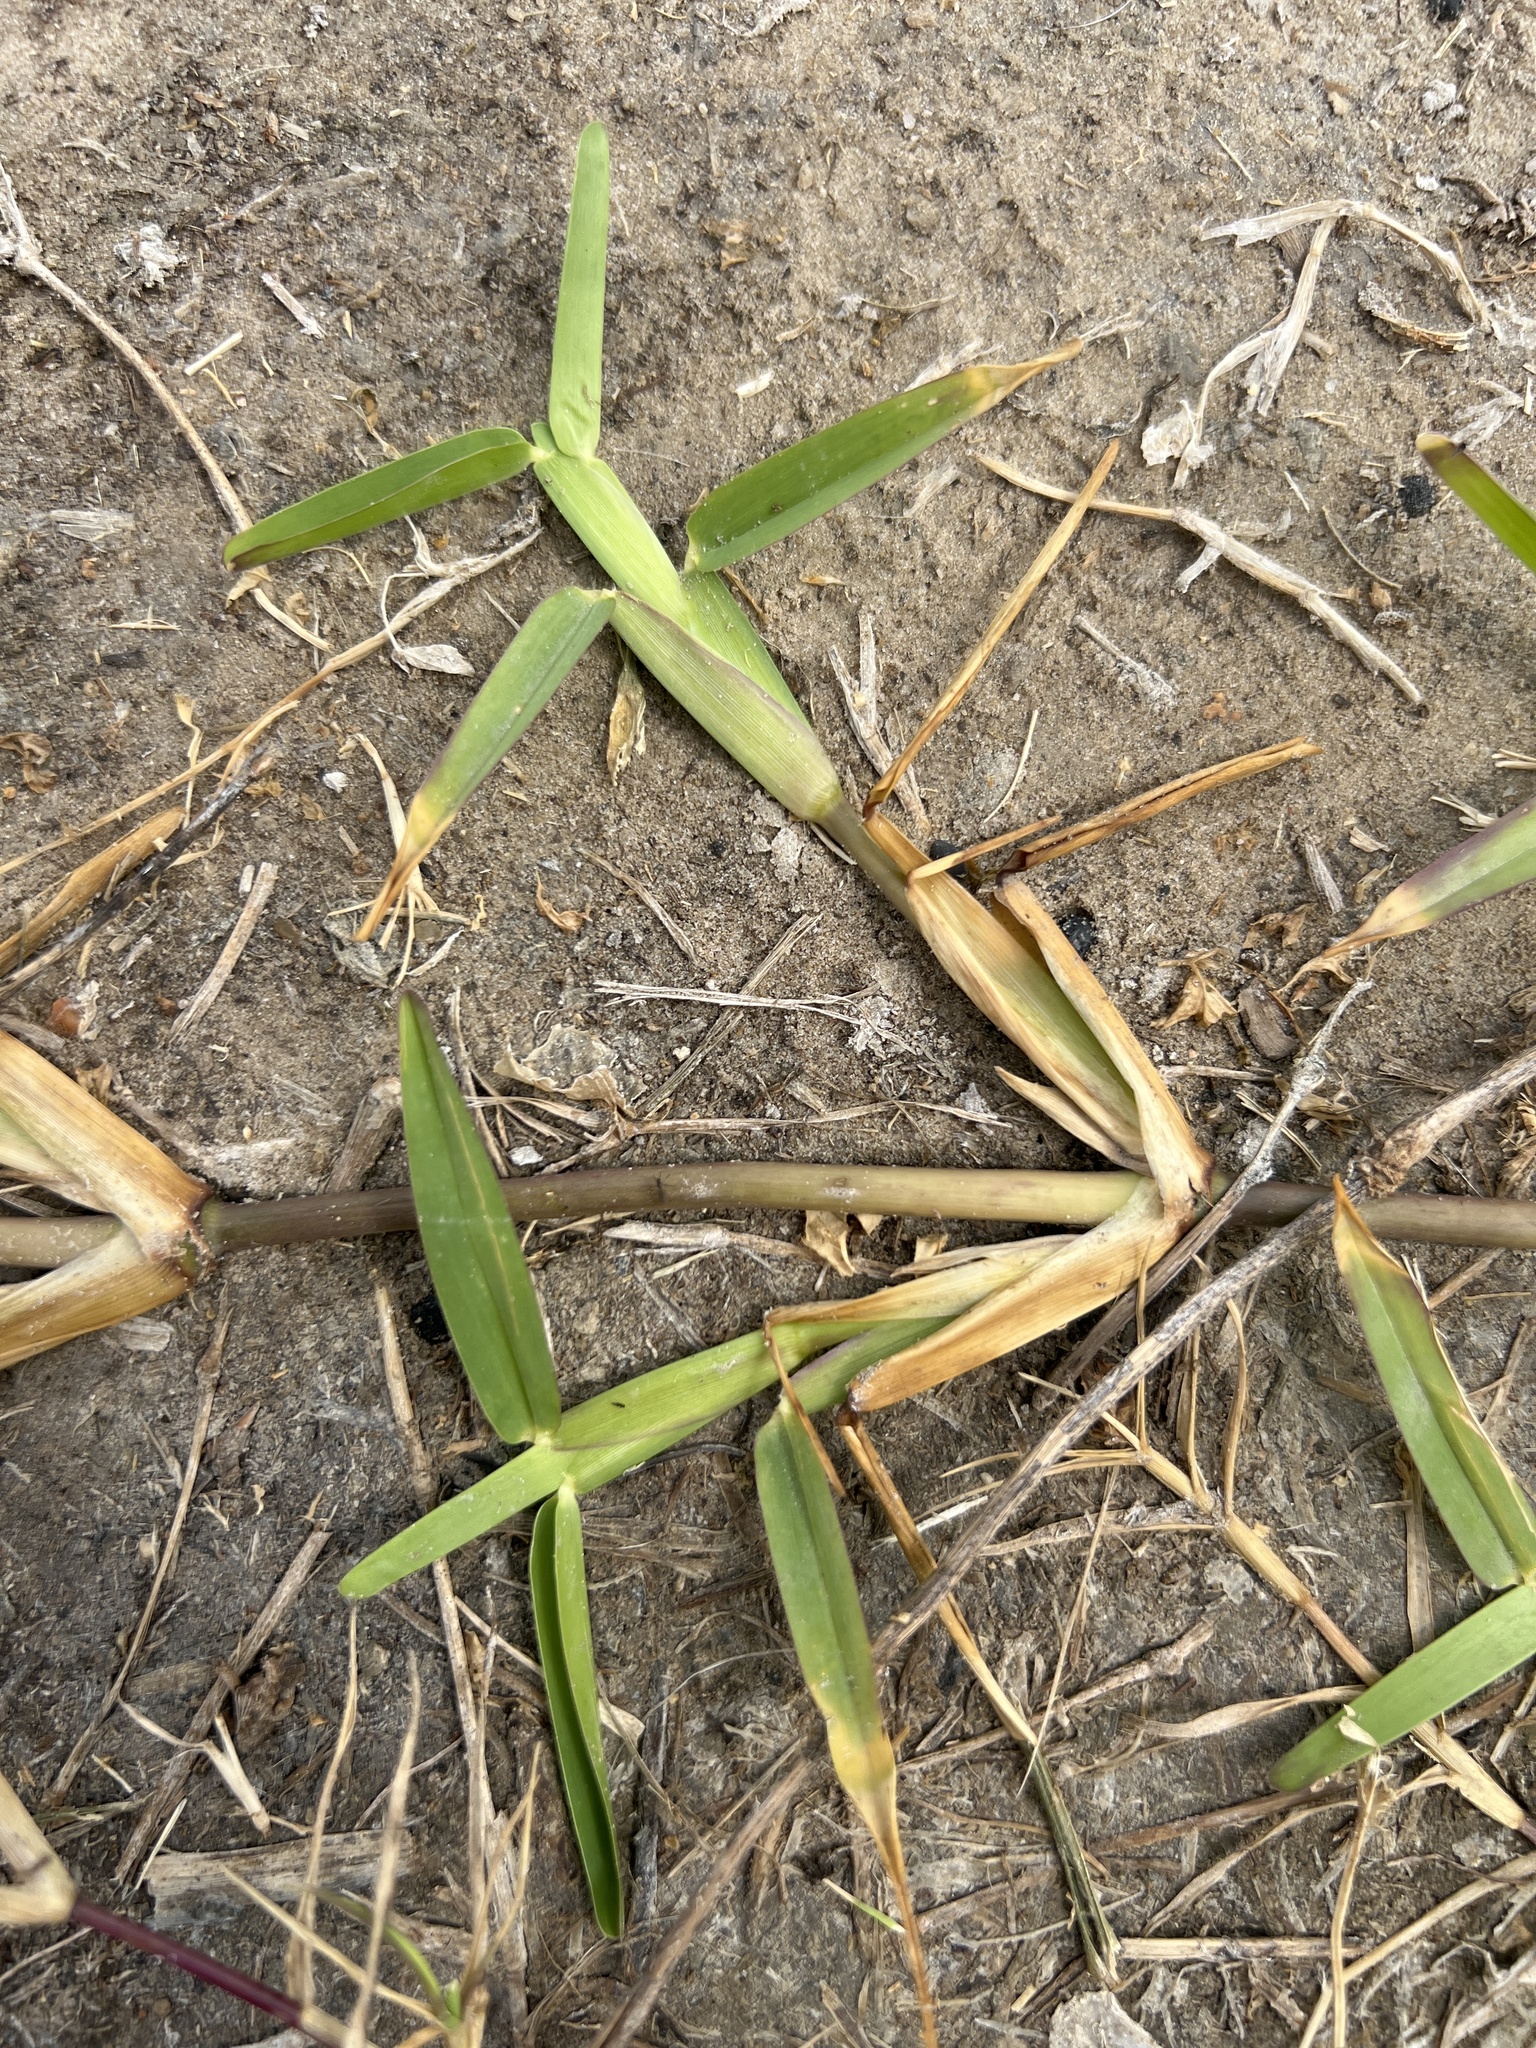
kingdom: Plantae
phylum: Tracheophyta
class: Liliopsida
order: Poales
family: Poaceae
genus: Stenotaphrum
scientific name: Stenotaphrum secundatum
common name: St. augustine grass
